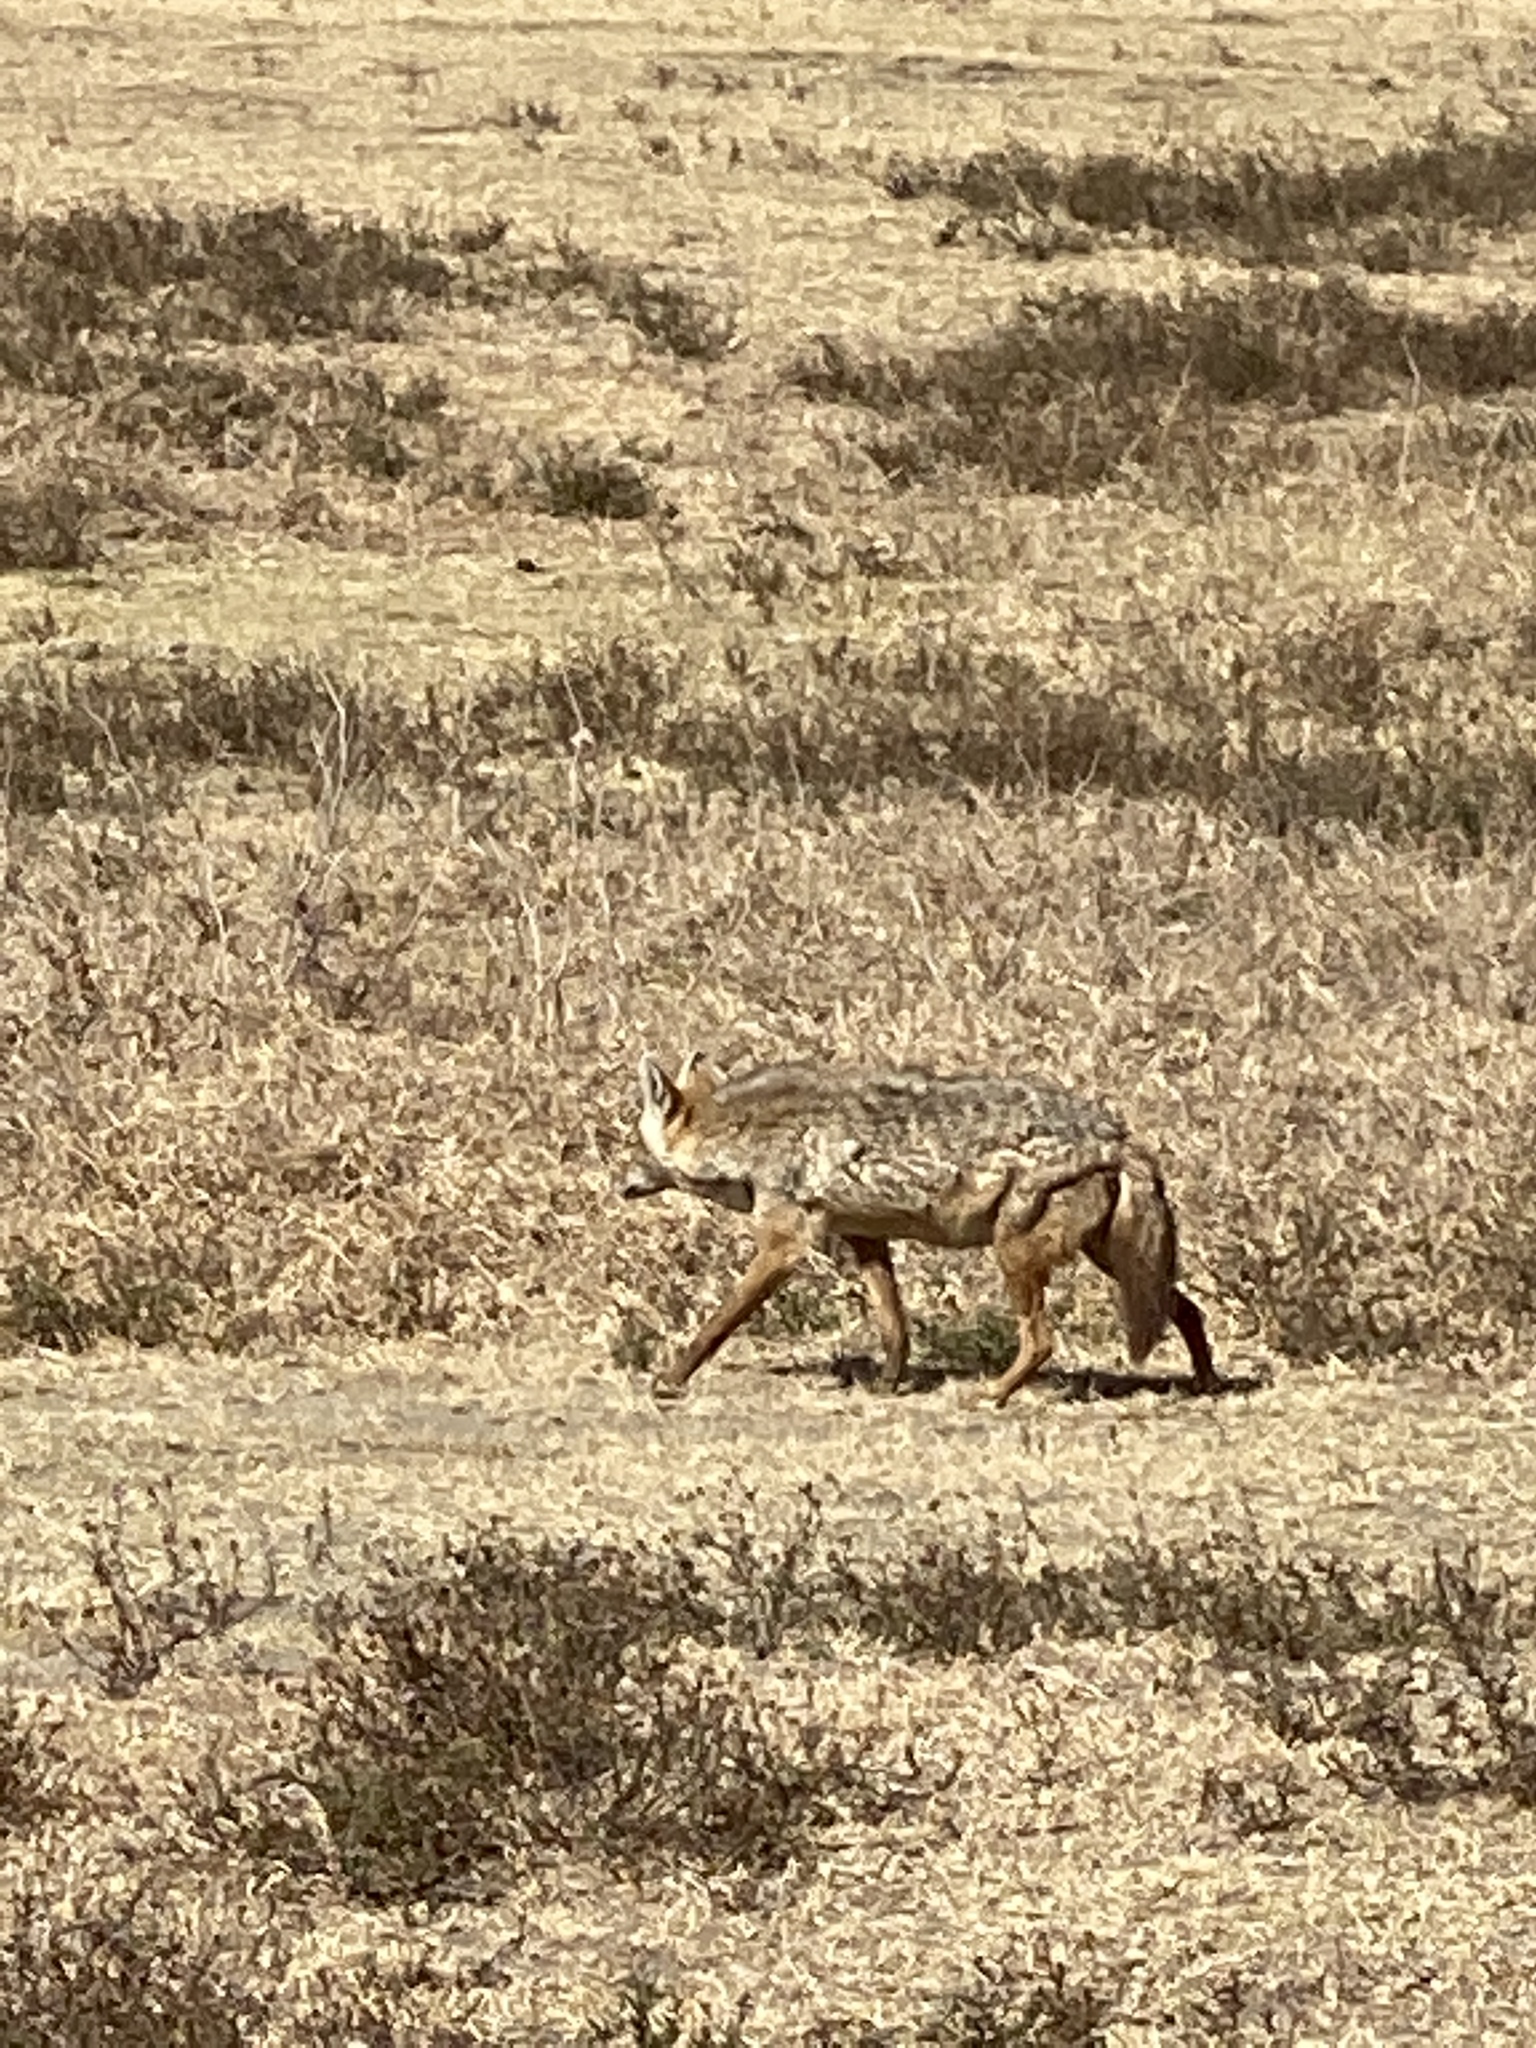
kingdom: Animalia
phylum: Chordata
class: Mammalia
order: Carnivora
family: Canidae
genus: Canis
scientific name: Canis lupaster
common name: African golden wolf
